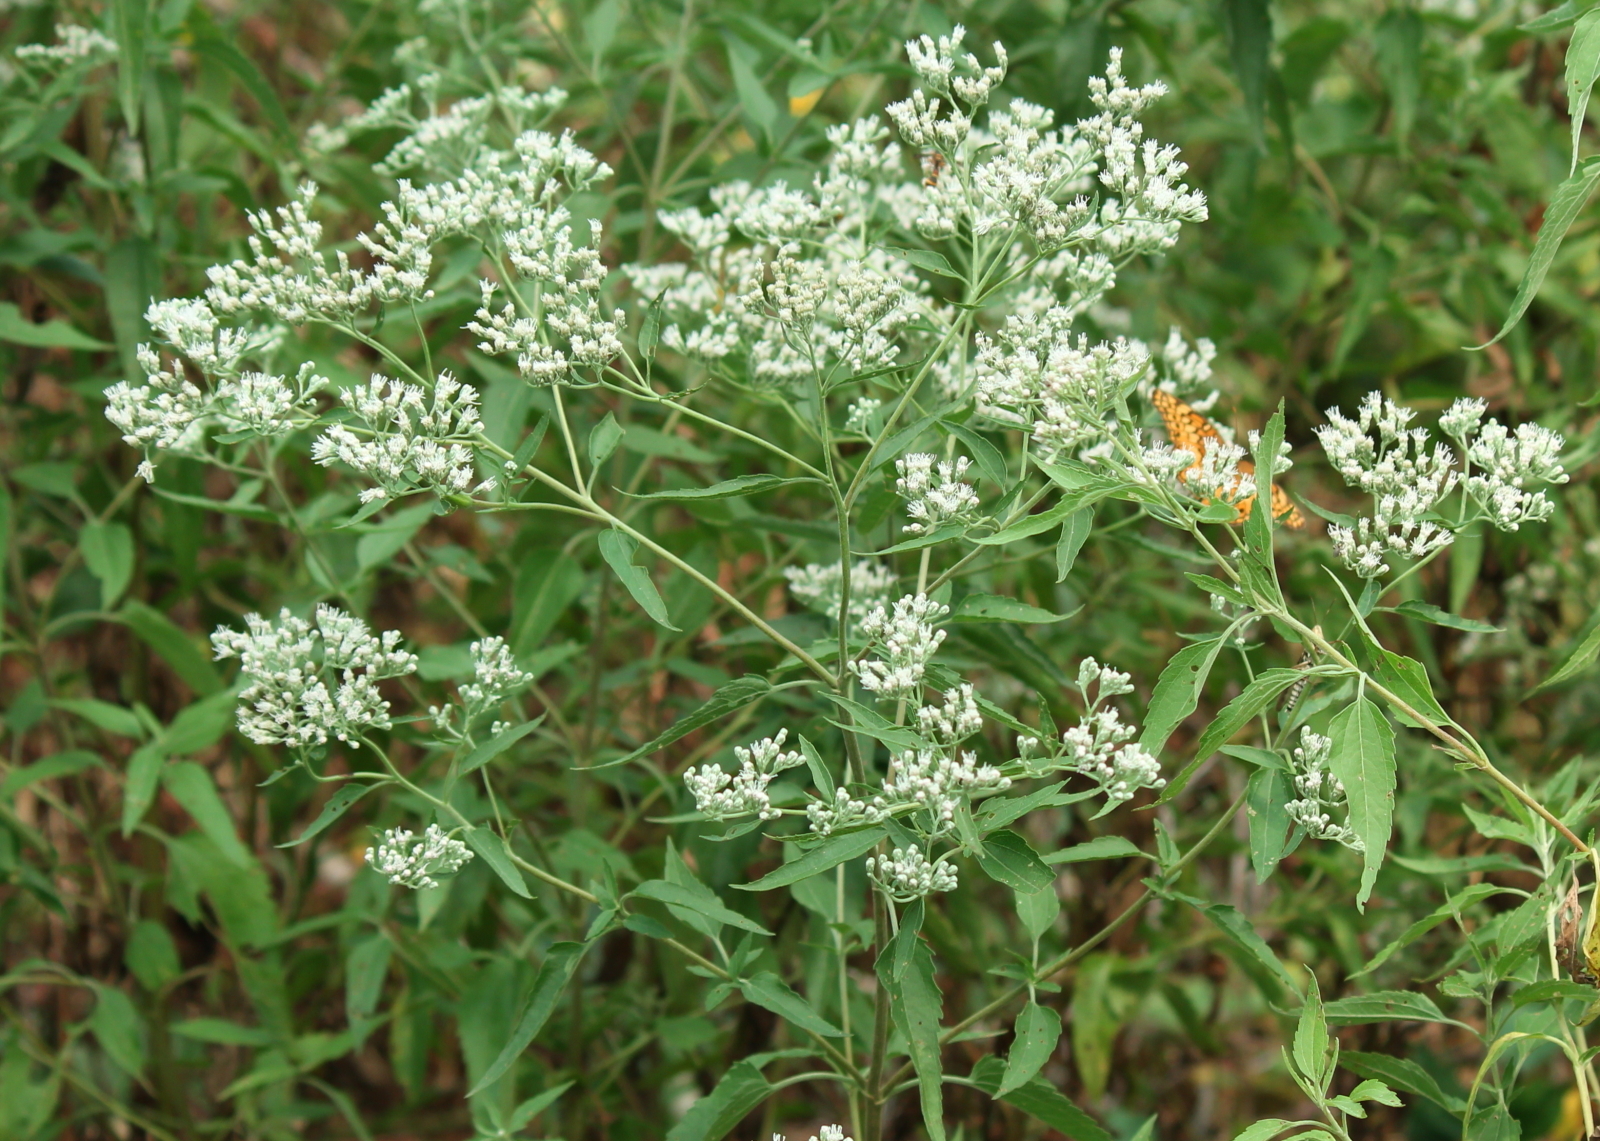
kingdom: Plantae
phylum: Tracheophyta
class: Magnoliopsida
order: Asterales
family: Asteraceae
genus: Eupatorium
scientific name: Eupatorium serotinum
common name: Late boneset
